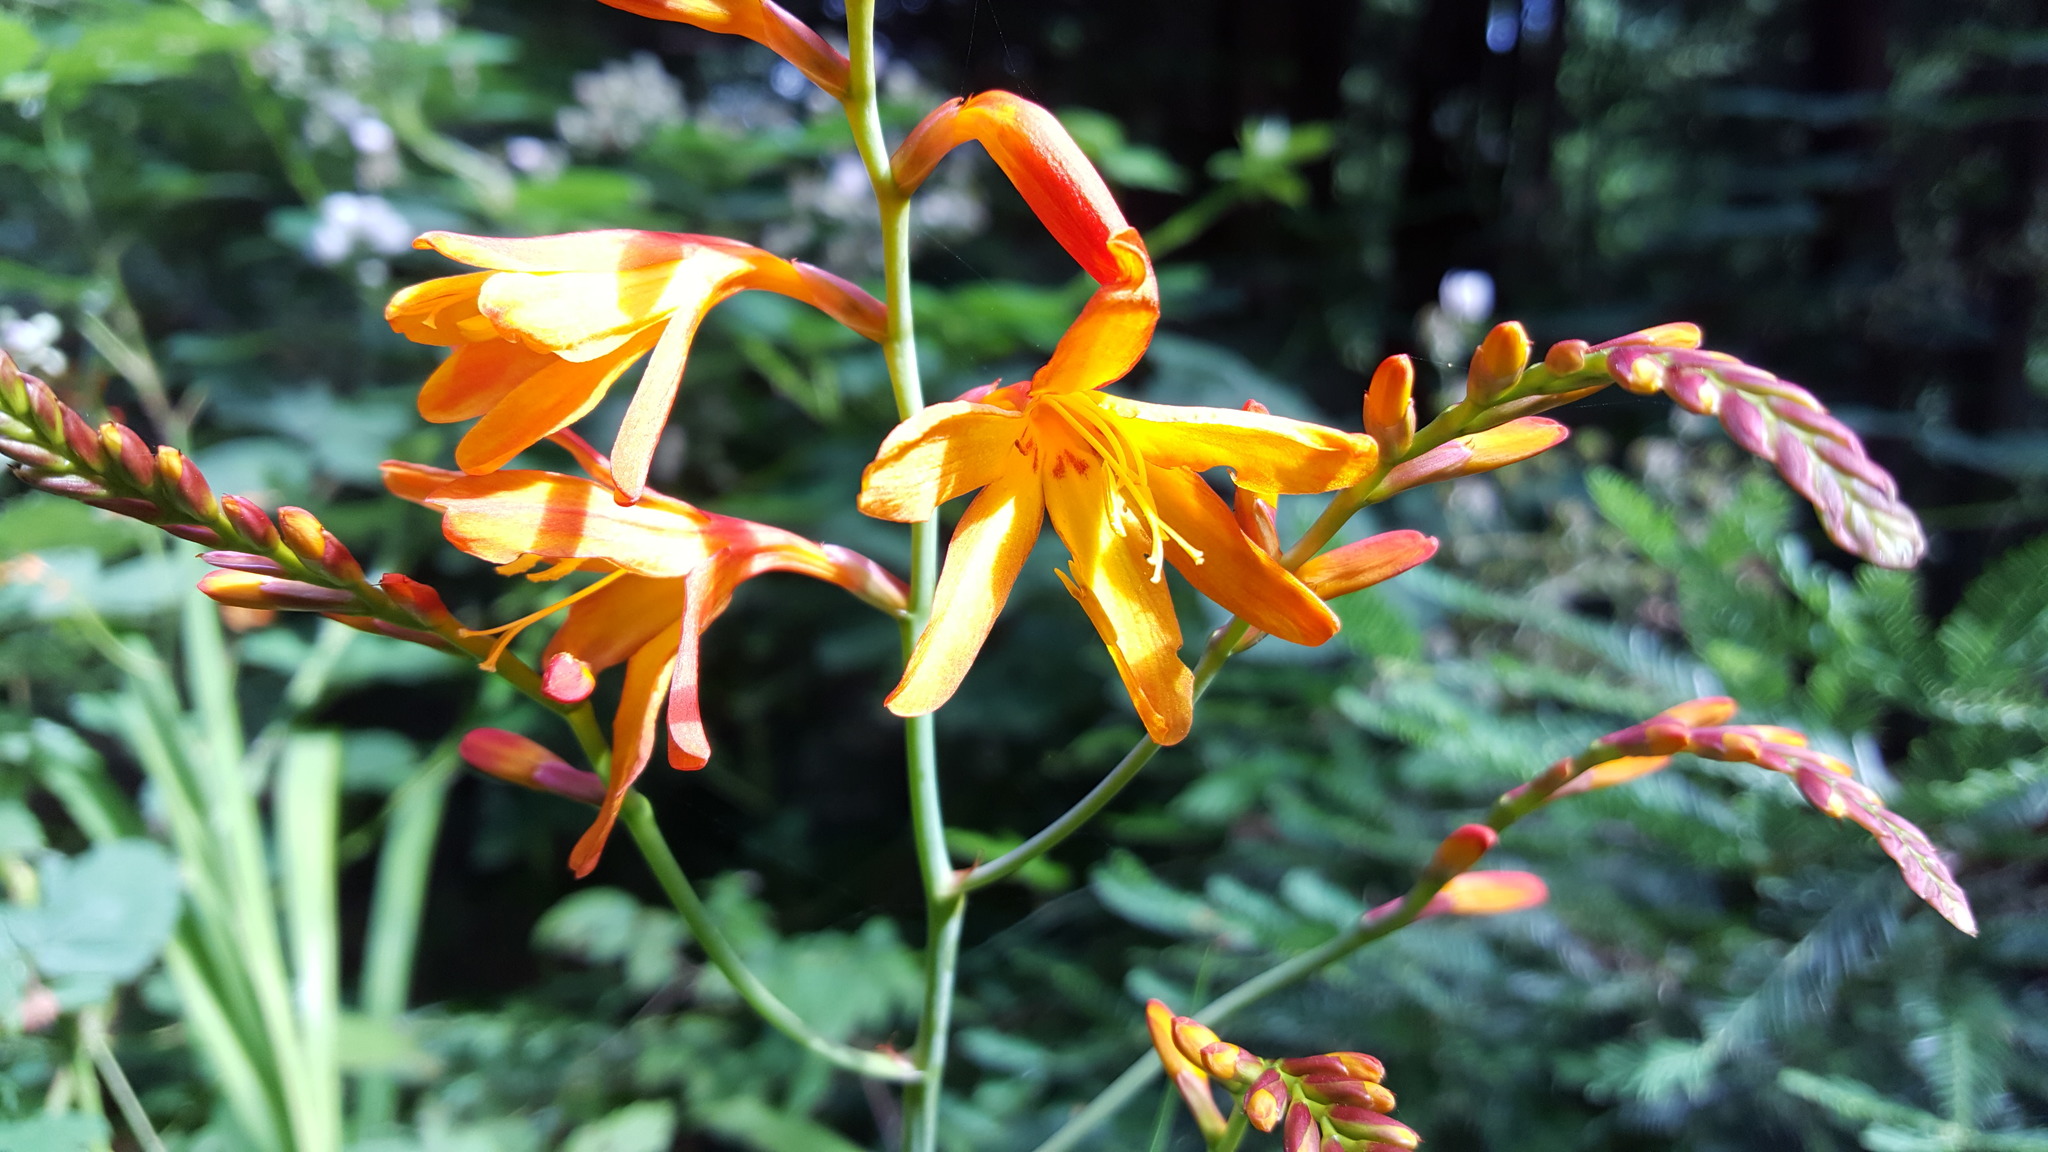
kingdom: Plantae
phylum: Tracheophyta
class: Liliopsida
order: Asparagales
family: Iridaceae
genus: Crocosmia
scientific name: Crocosmia crocosmiiflora
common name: Montbretia
